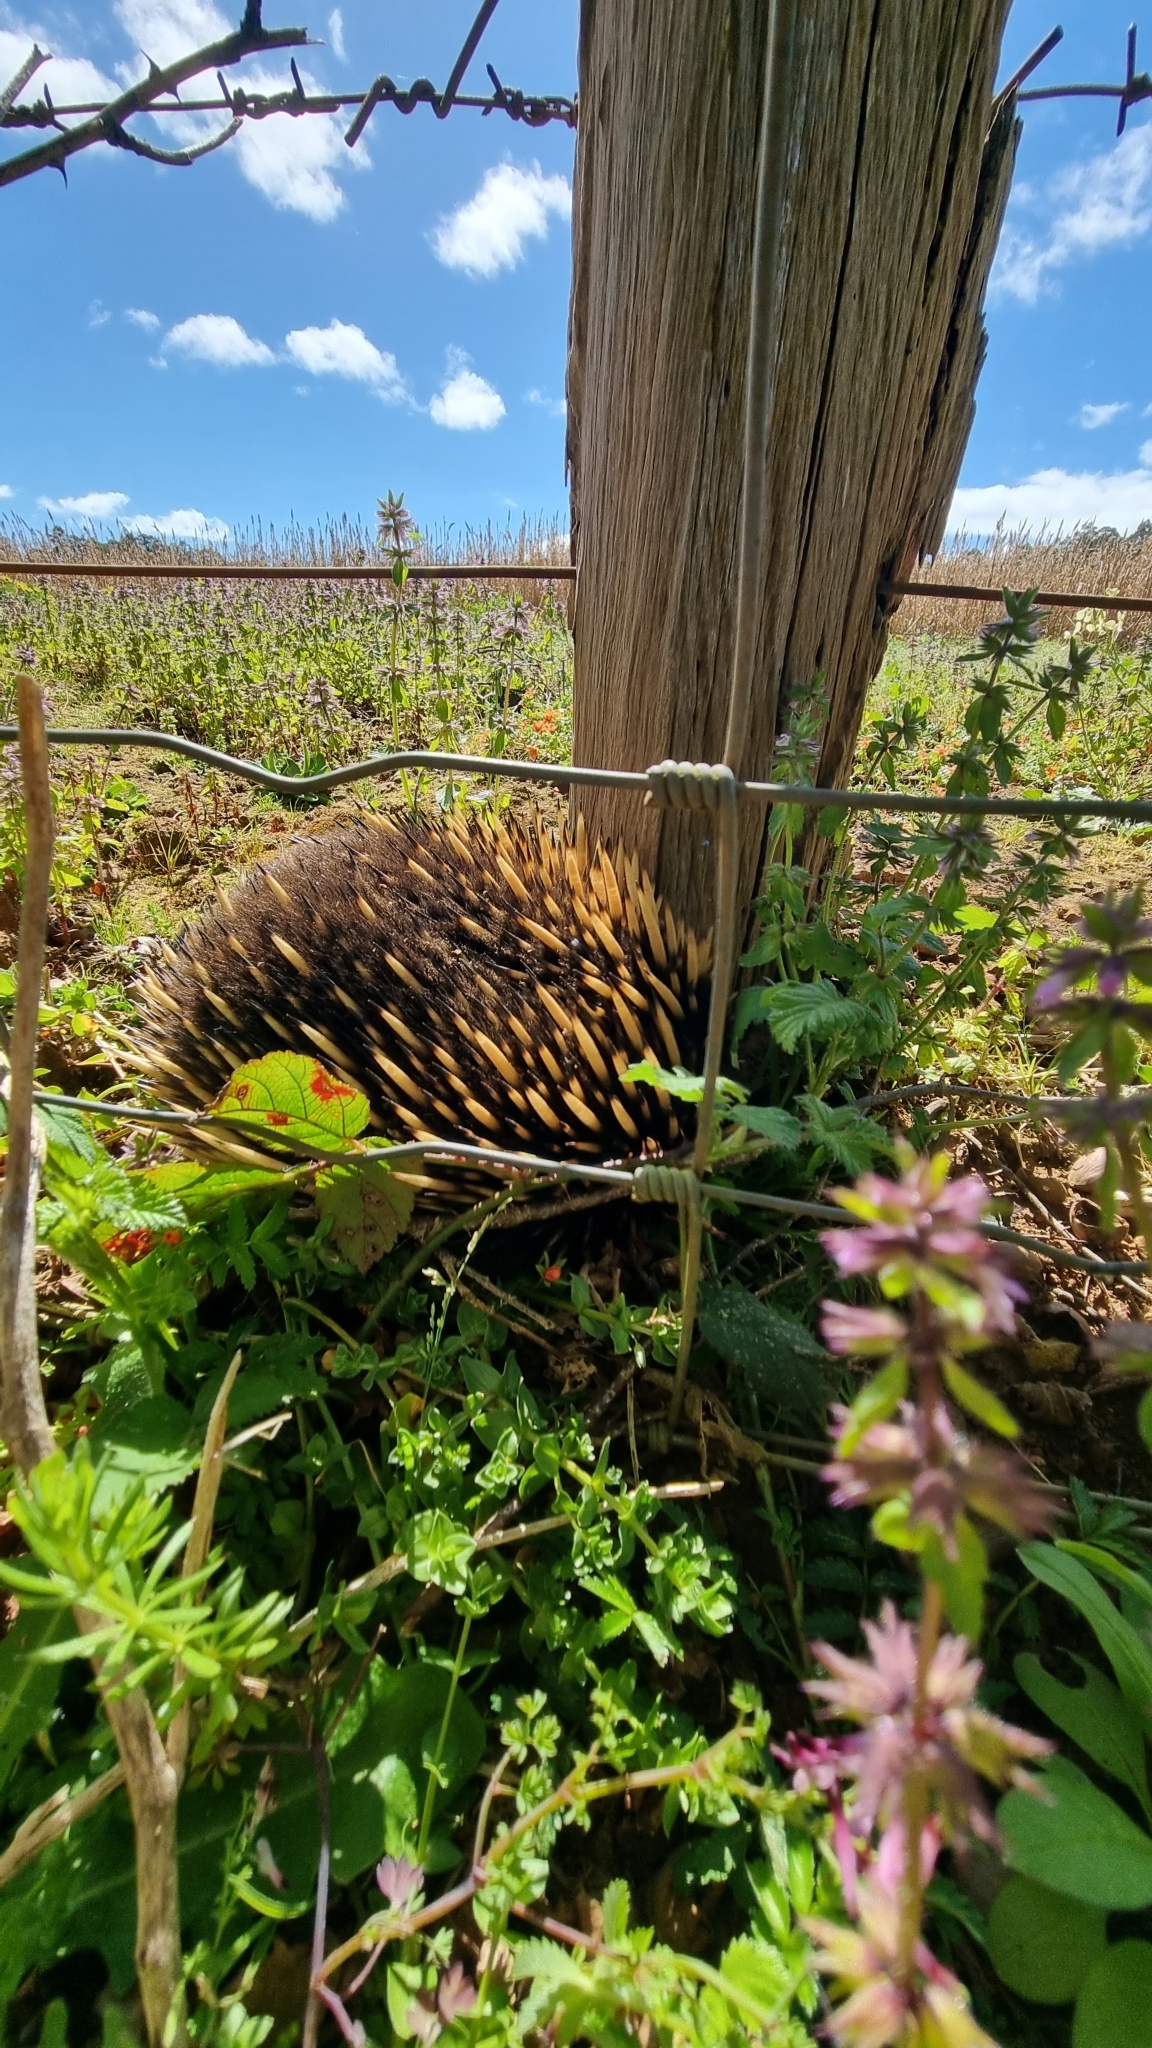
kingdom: Animalia
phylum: Chordata
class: Mammalia
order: Monotremata
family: Tachyglossidae
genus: Tachyglossus
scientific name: Tachyglossus aculeatus
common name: Short-beaked echidna
